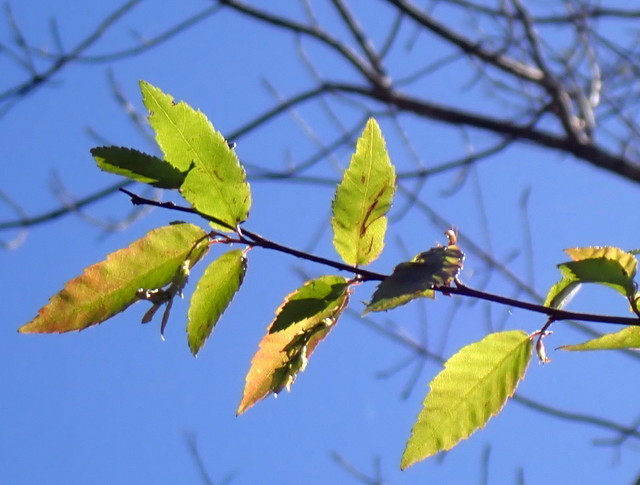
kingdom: Plantae
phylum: Tracheophyta
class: Magnoliopsida
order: Fagales
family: Betulaceae
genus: Carpinus
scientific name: Carpinus caroliniana
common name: American hornbeam
